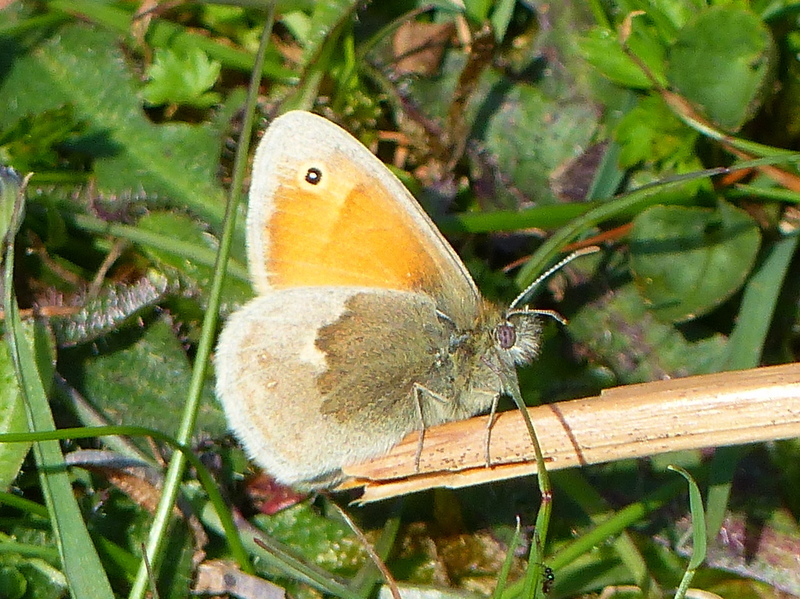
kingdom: Animalia
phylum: Arthropoda
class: Insecta
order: Lepidoptera
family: Nymphalidae
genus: Coenonympha
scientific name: Coenonympha pamphilus
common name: Small heath
